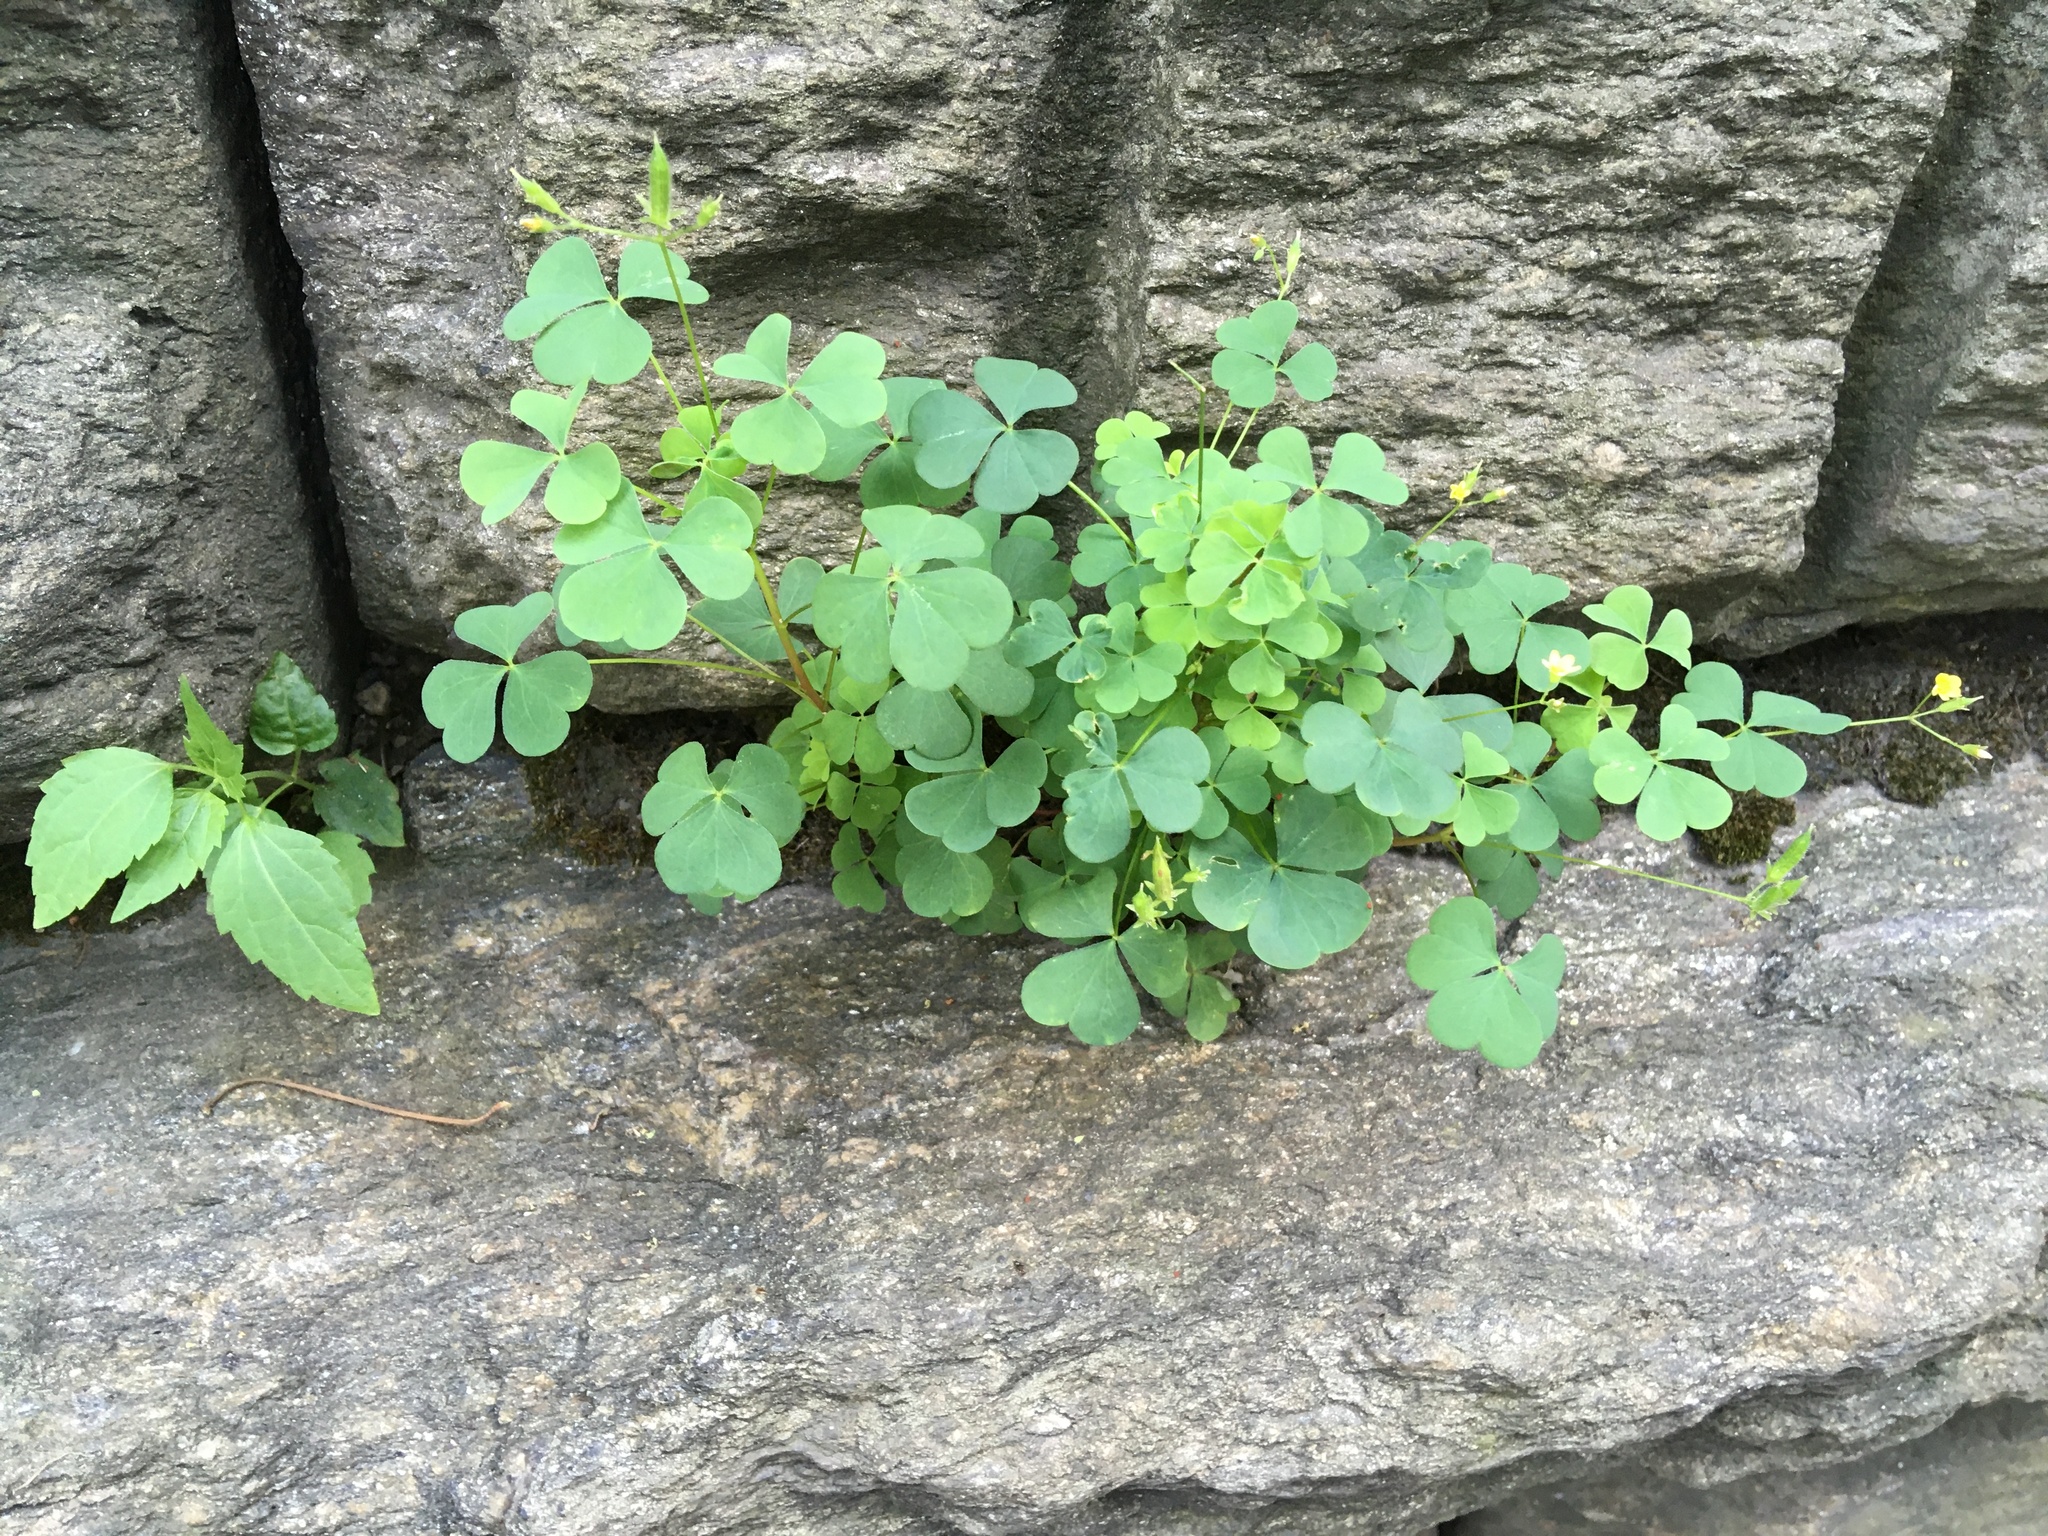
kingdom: Plantae
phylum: Tracheophyta
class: Magnoliopsida
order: Oxalidales
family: Oxalidaceae
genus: Oxalis
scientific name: Oxalis corniculata
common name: Procumbent yellow-sorrel
